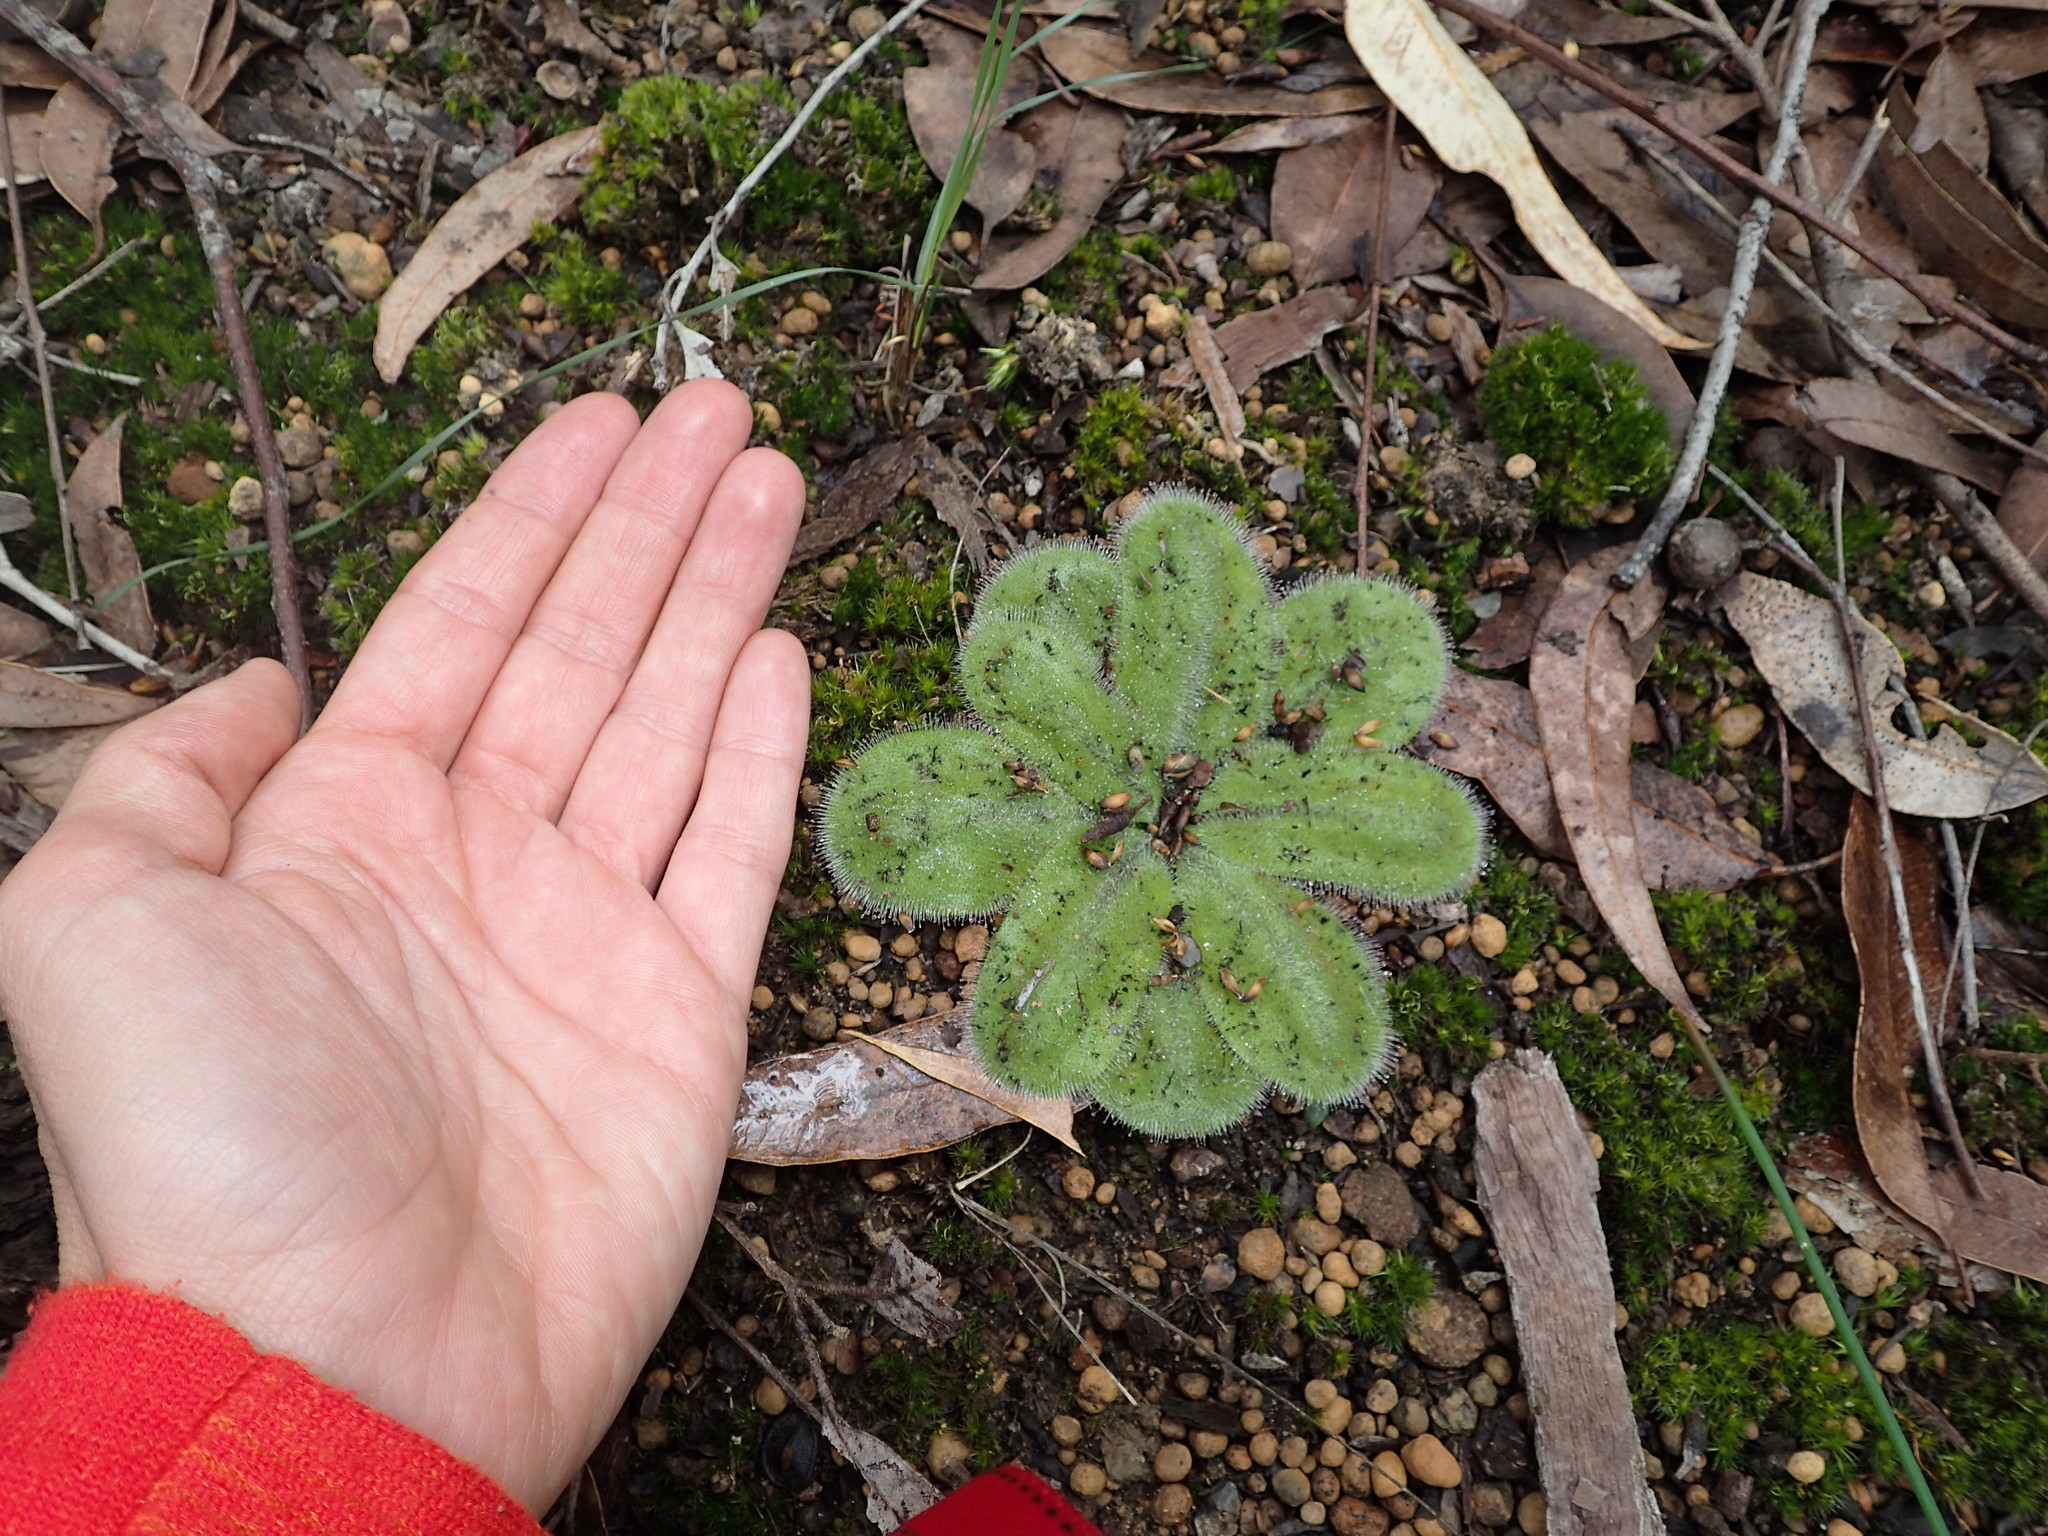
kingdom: Plantae
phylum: Tracheophyta
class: Magnoliopsida
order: Caryophyllales
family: Droseraceae
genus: Drosera
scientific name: Drosera erythrorhiza
